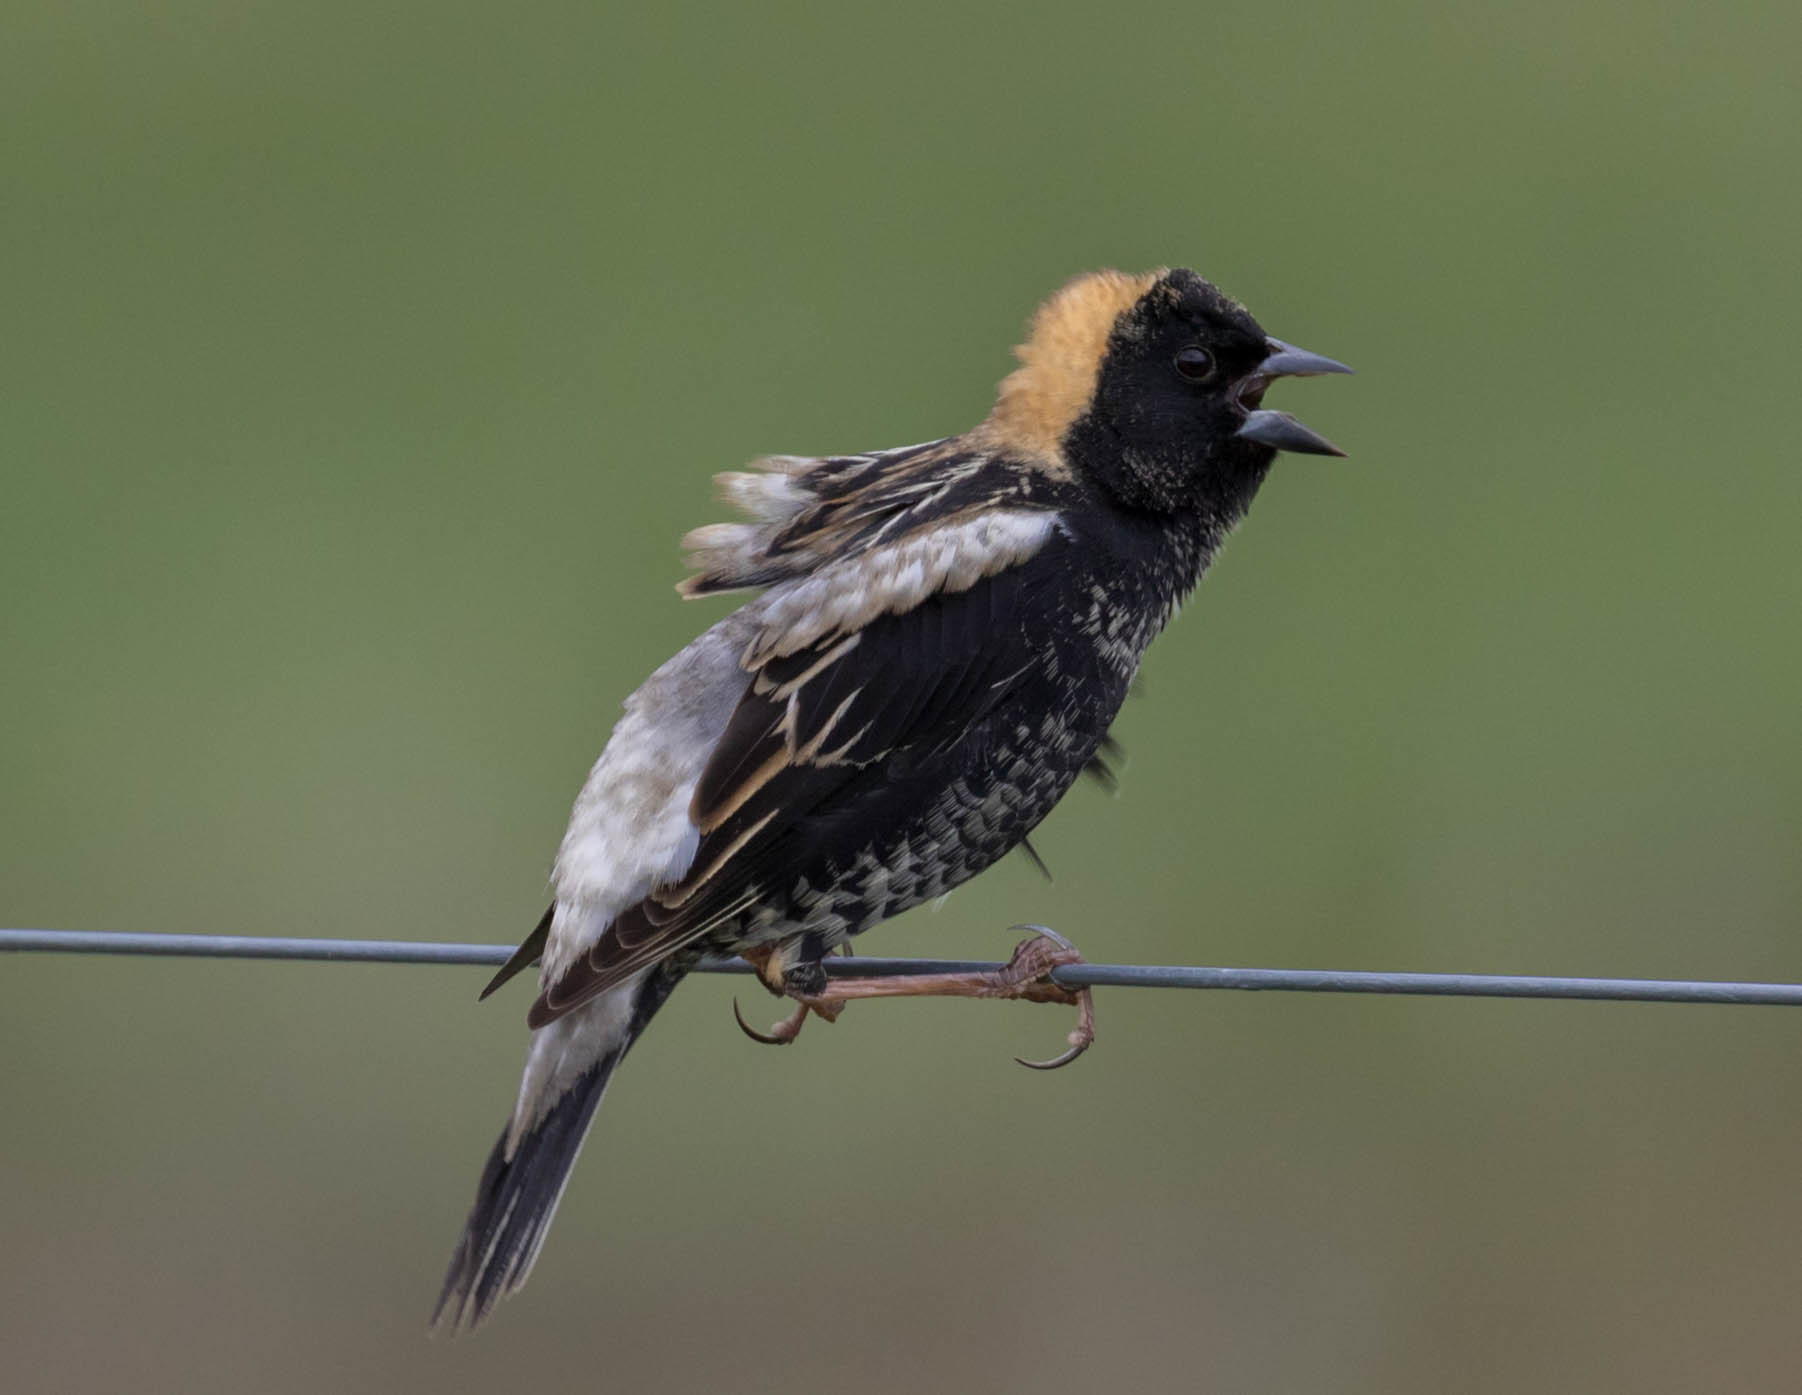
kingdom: Animalia
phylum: Chordata
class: Aves
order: Passeriformes
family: Icteridae
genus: Dolichonyx
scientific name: Dolichonyx oryzivorus
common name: Bobolink
